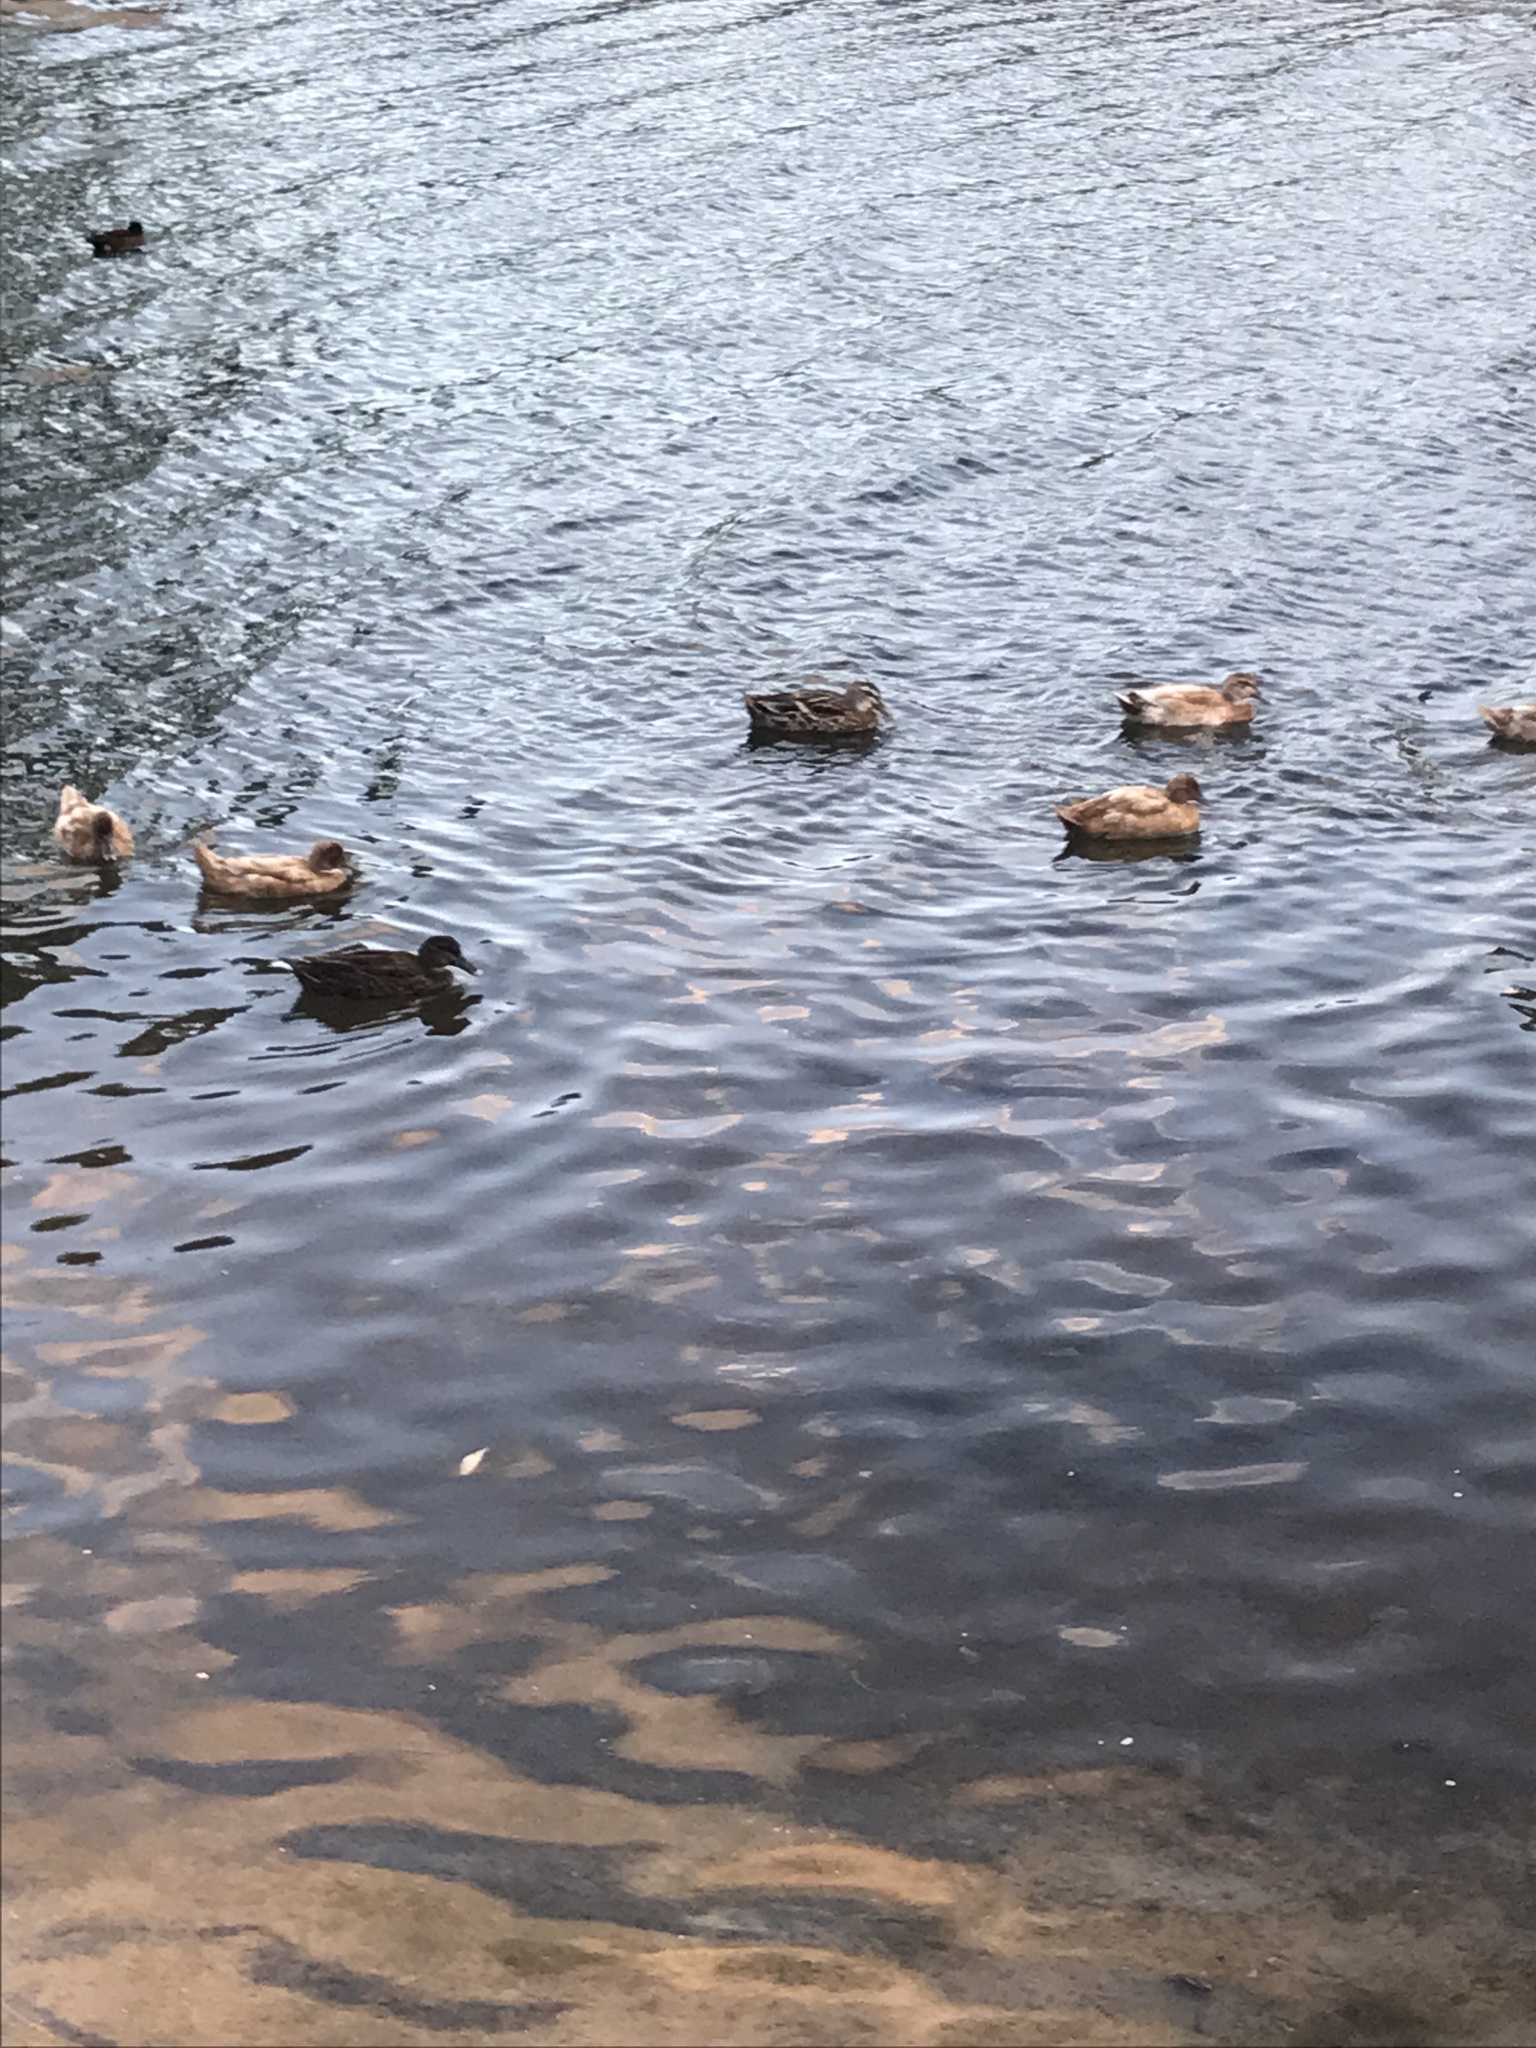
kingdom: Animalia
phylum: Chordata
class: Aves
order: Anseriformes
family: Anatidae
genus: Anas
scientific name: Anas
